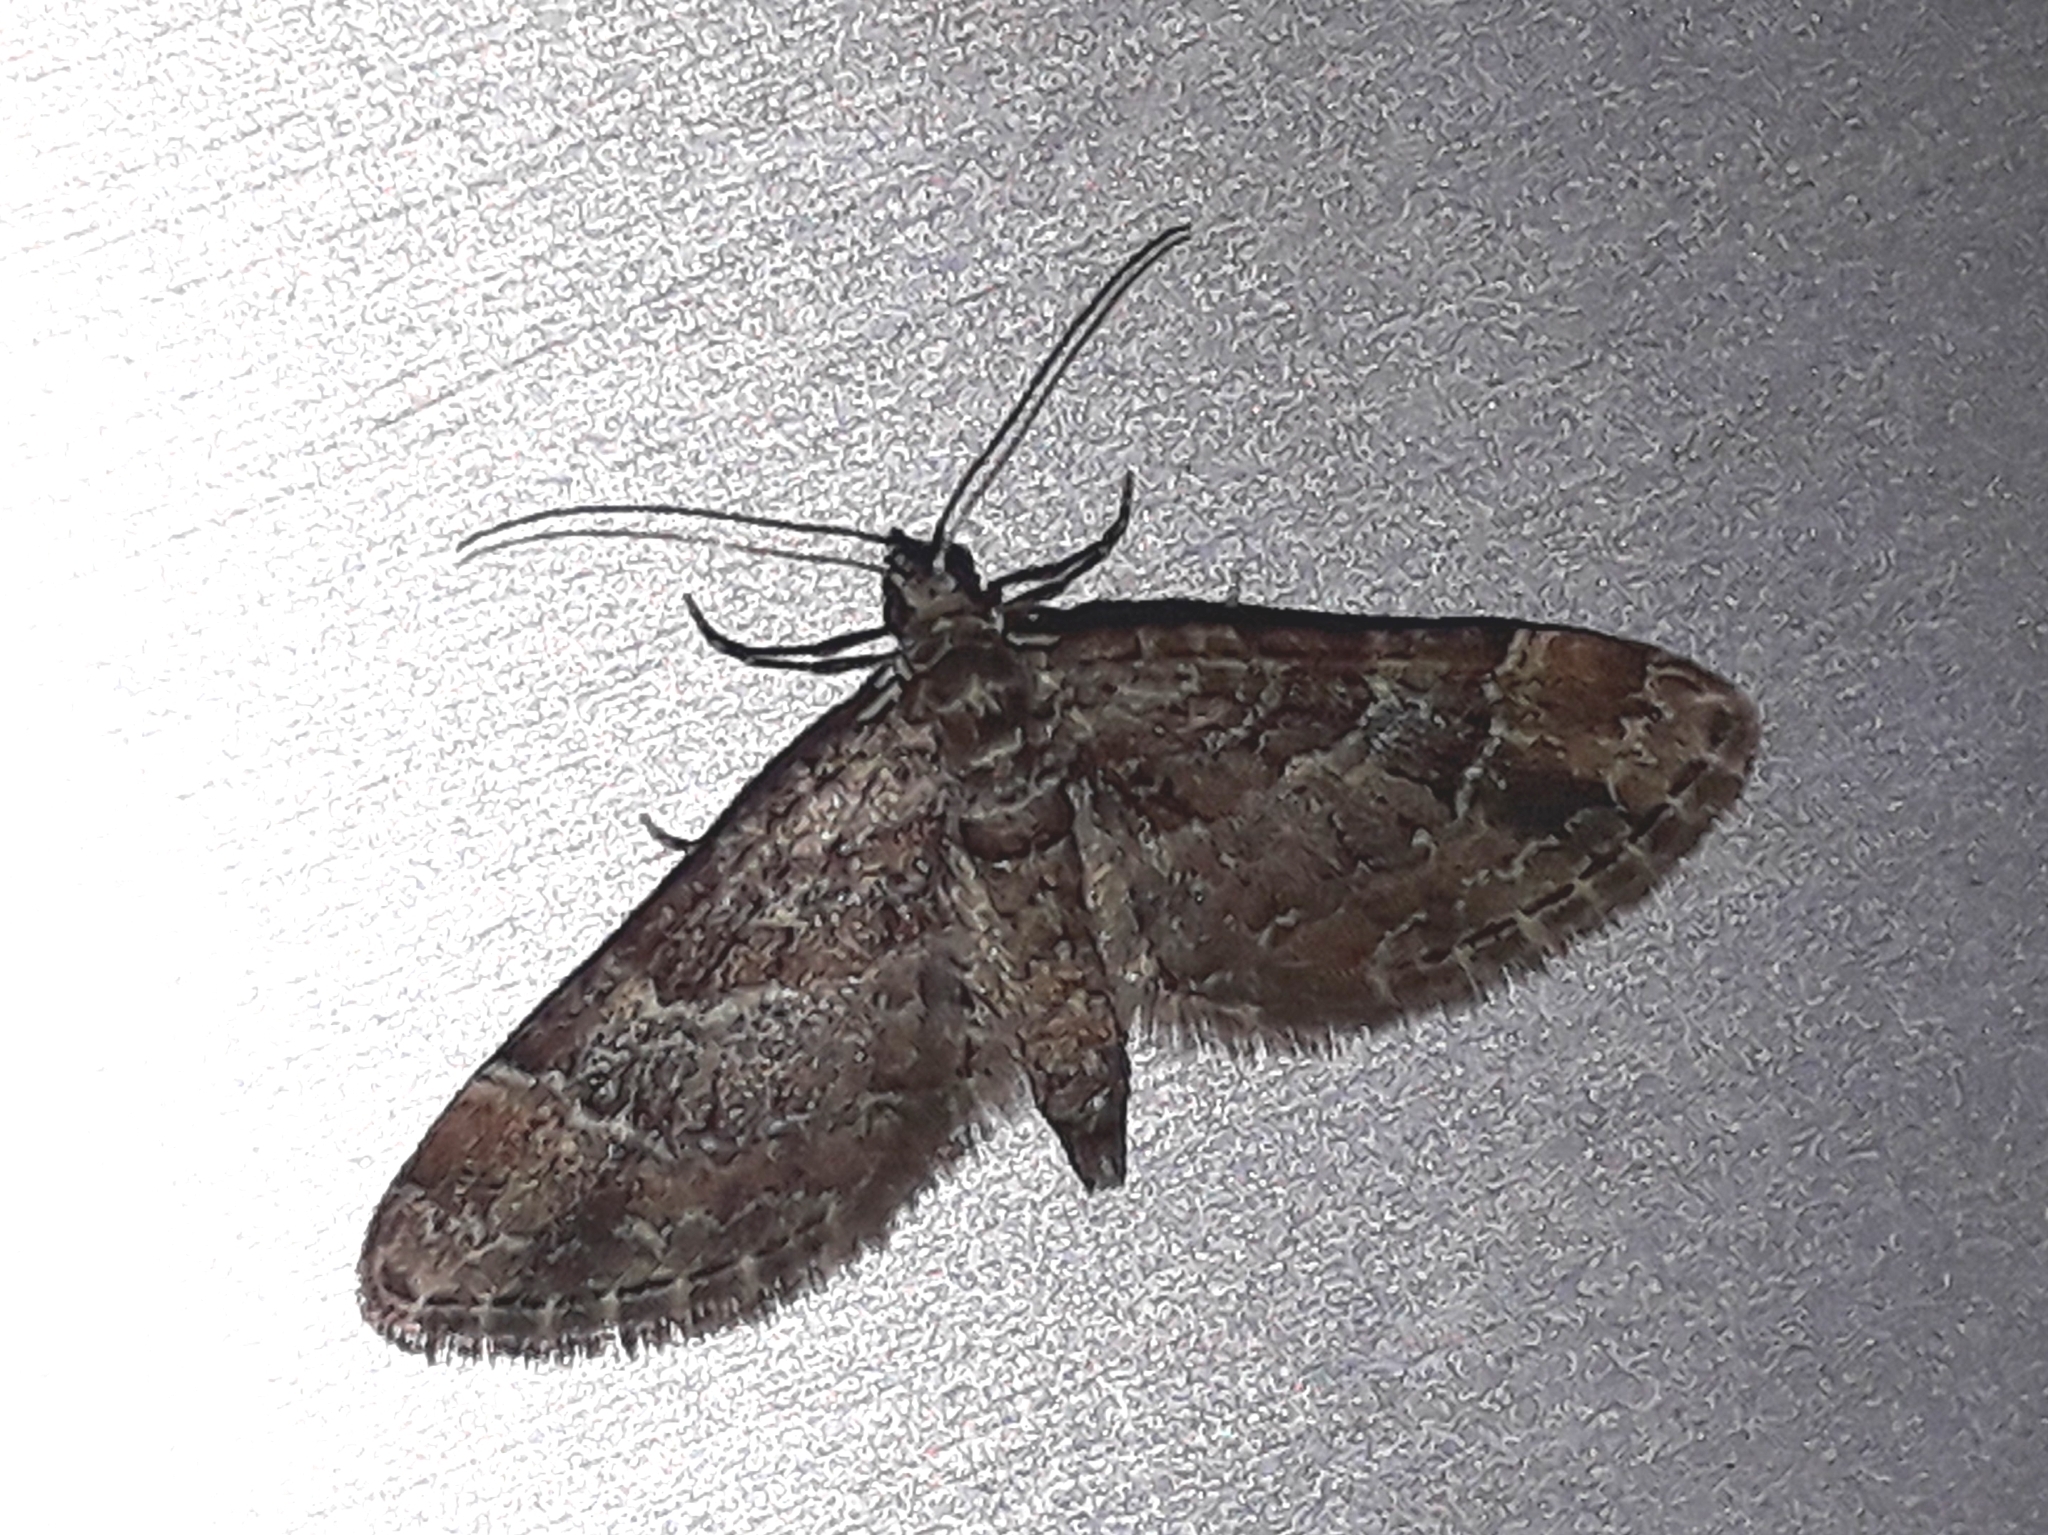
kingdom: Animalia
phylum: Arthropoda
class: Insecta
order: Lepidoptera
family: Geometridae
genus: Gymnoscelis
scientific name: Gymnoscelis rufifasciata
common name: Double-striped pug
